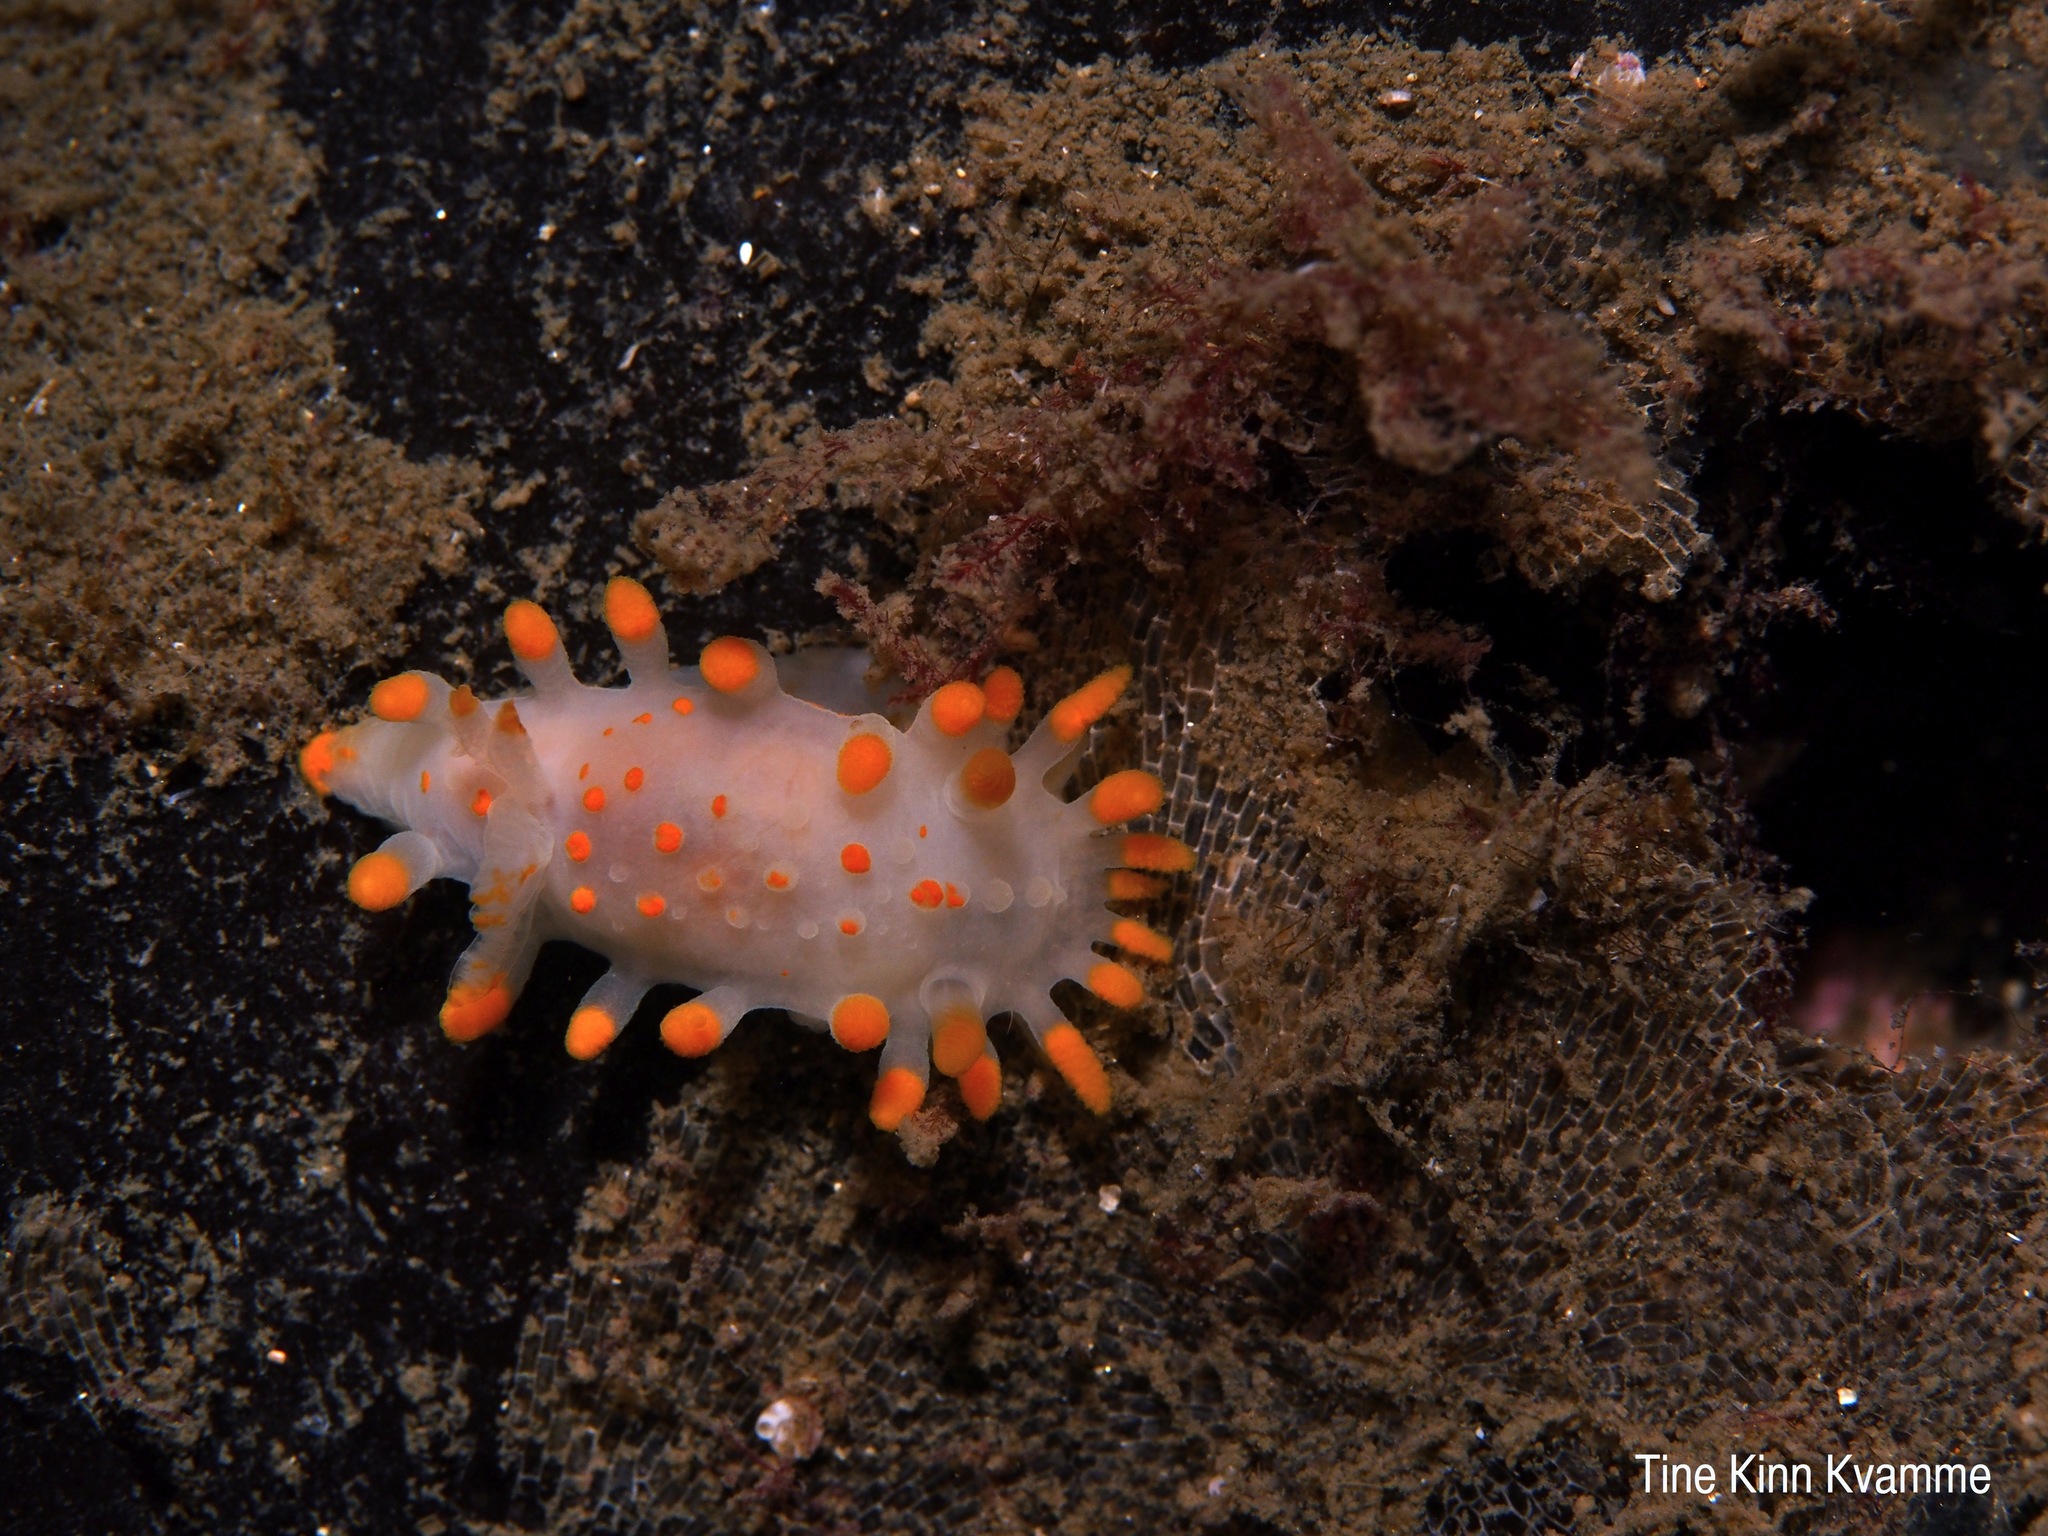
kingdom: Animalia
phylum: Mollusca
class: Gastropoda
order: Nudibranchia
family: Polyceridae
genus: Limacia
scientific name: Limacia clavigera
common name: Orange-clubbed sea slug
